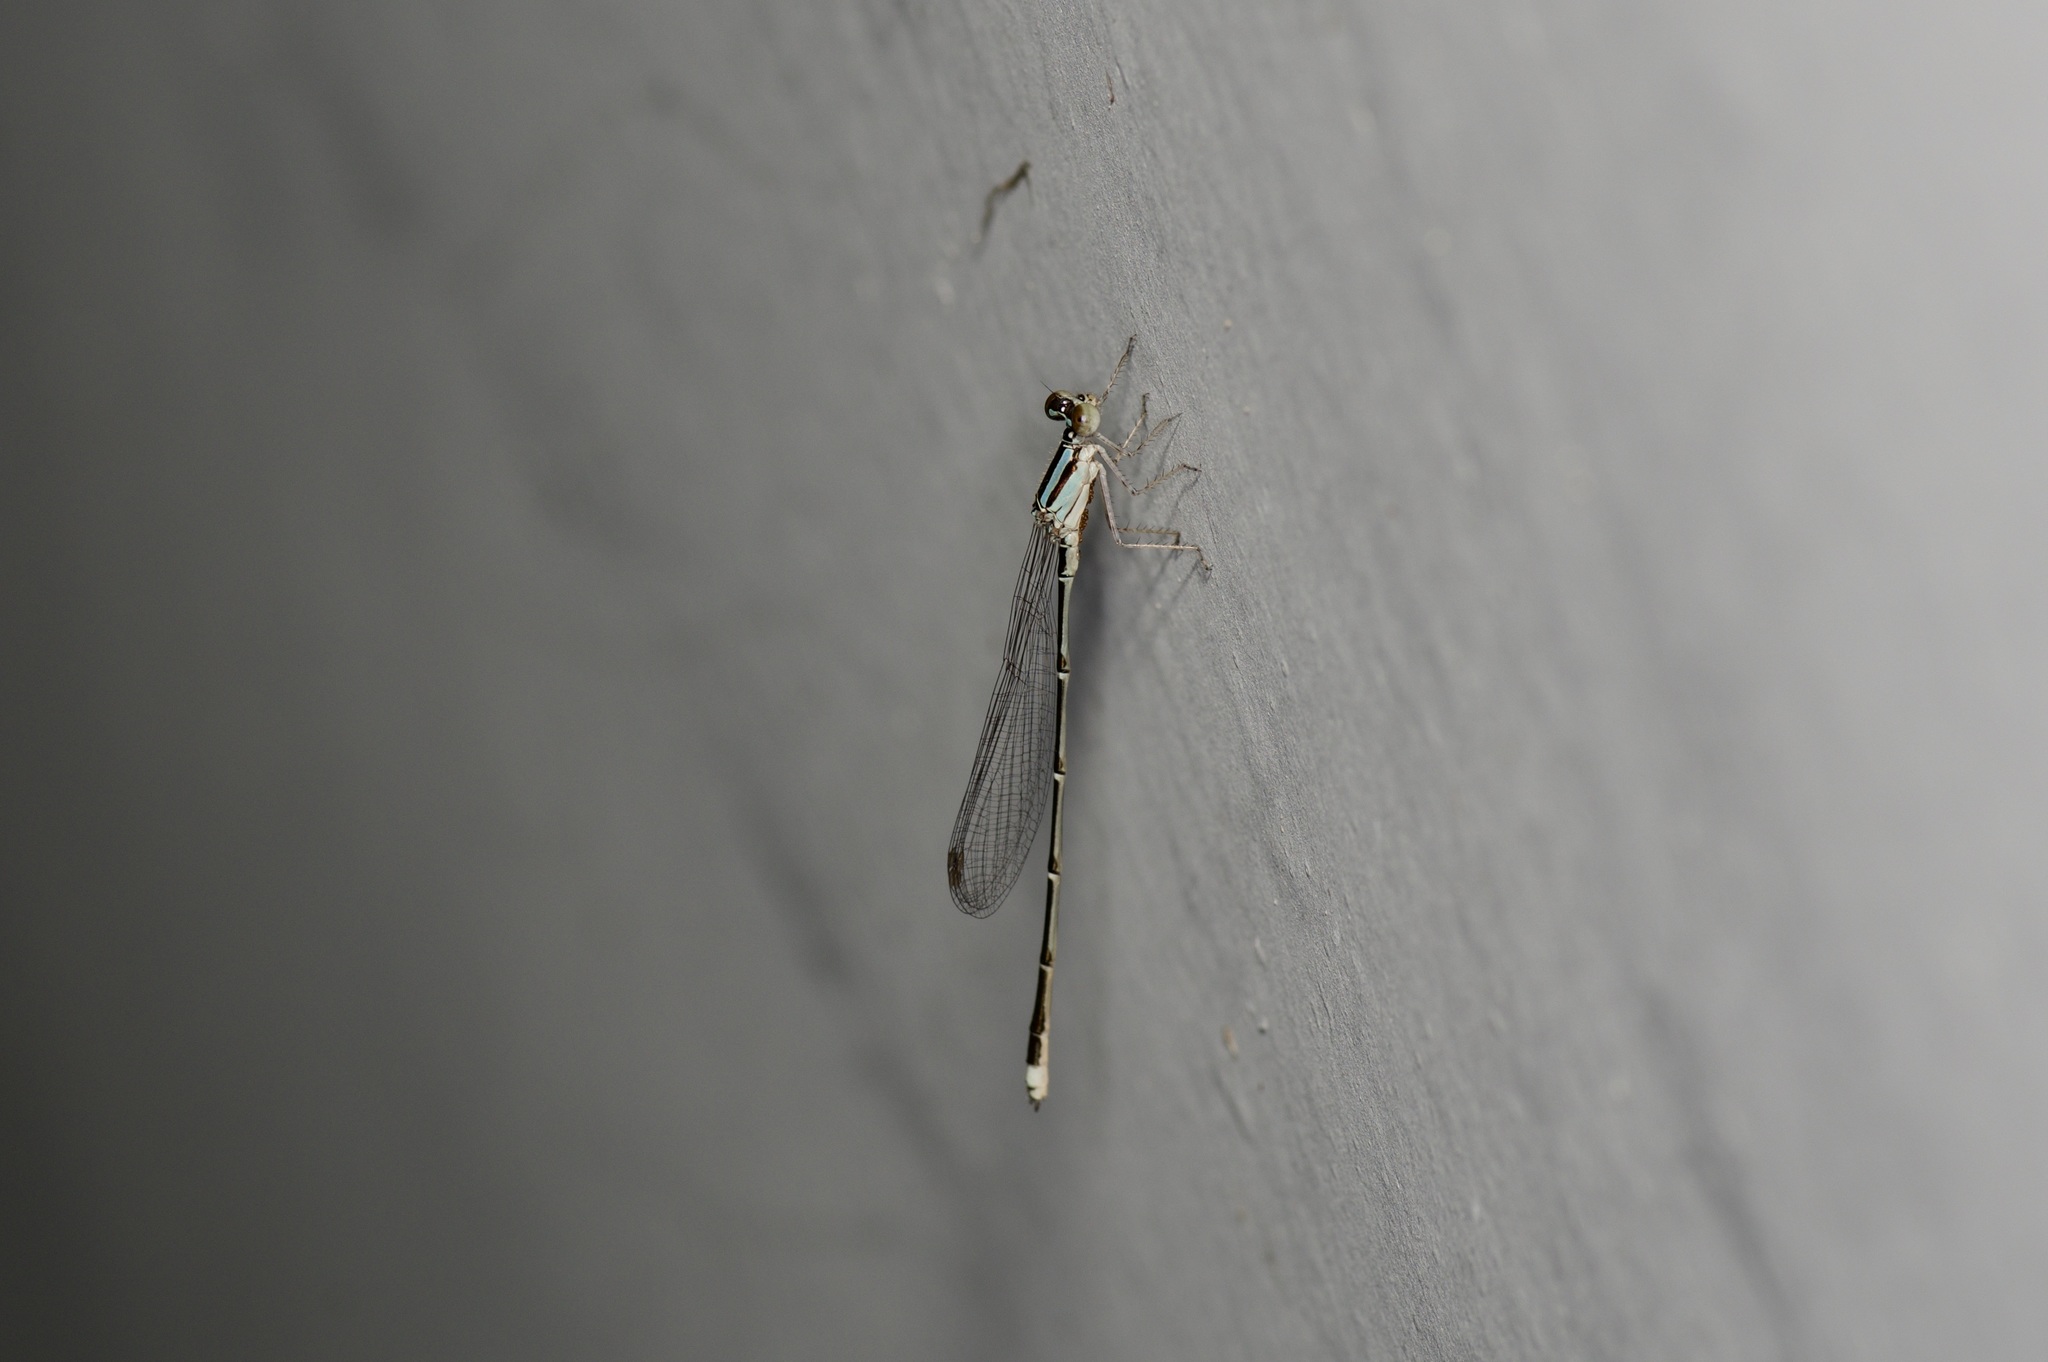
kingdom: Animalia
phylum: Arthropoda
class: Insecta
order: Odonata
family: Coenagrionidae
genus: Enallagma
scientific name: Enallagma signatum
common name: Orange bluet
